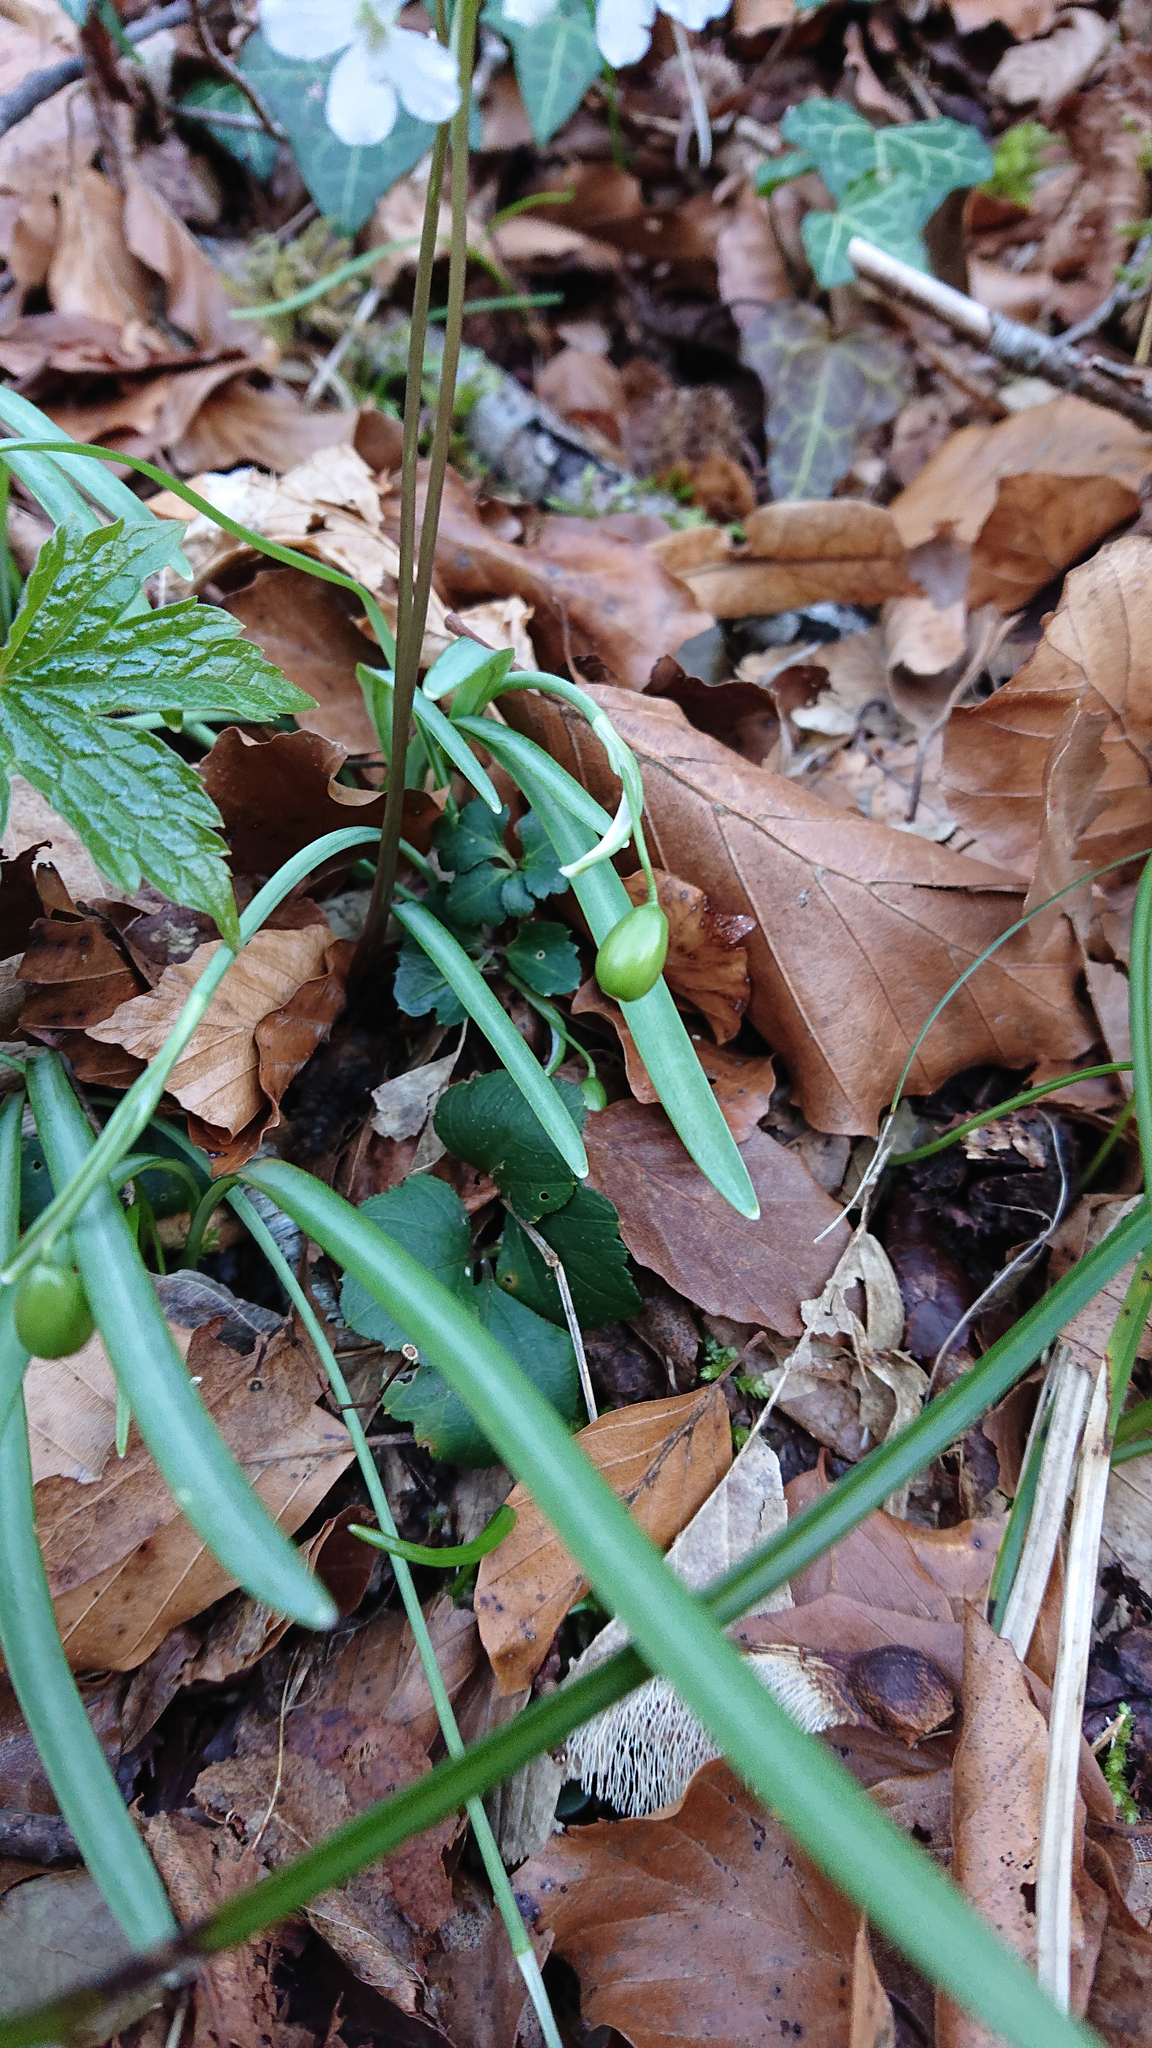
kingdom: Plantae
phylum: Tracheophyta
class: Liliopsida
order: Asparagales
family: Amaryllidaceae
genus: Galanthus
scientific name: Galanthus nivalis
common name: Snowdrop
